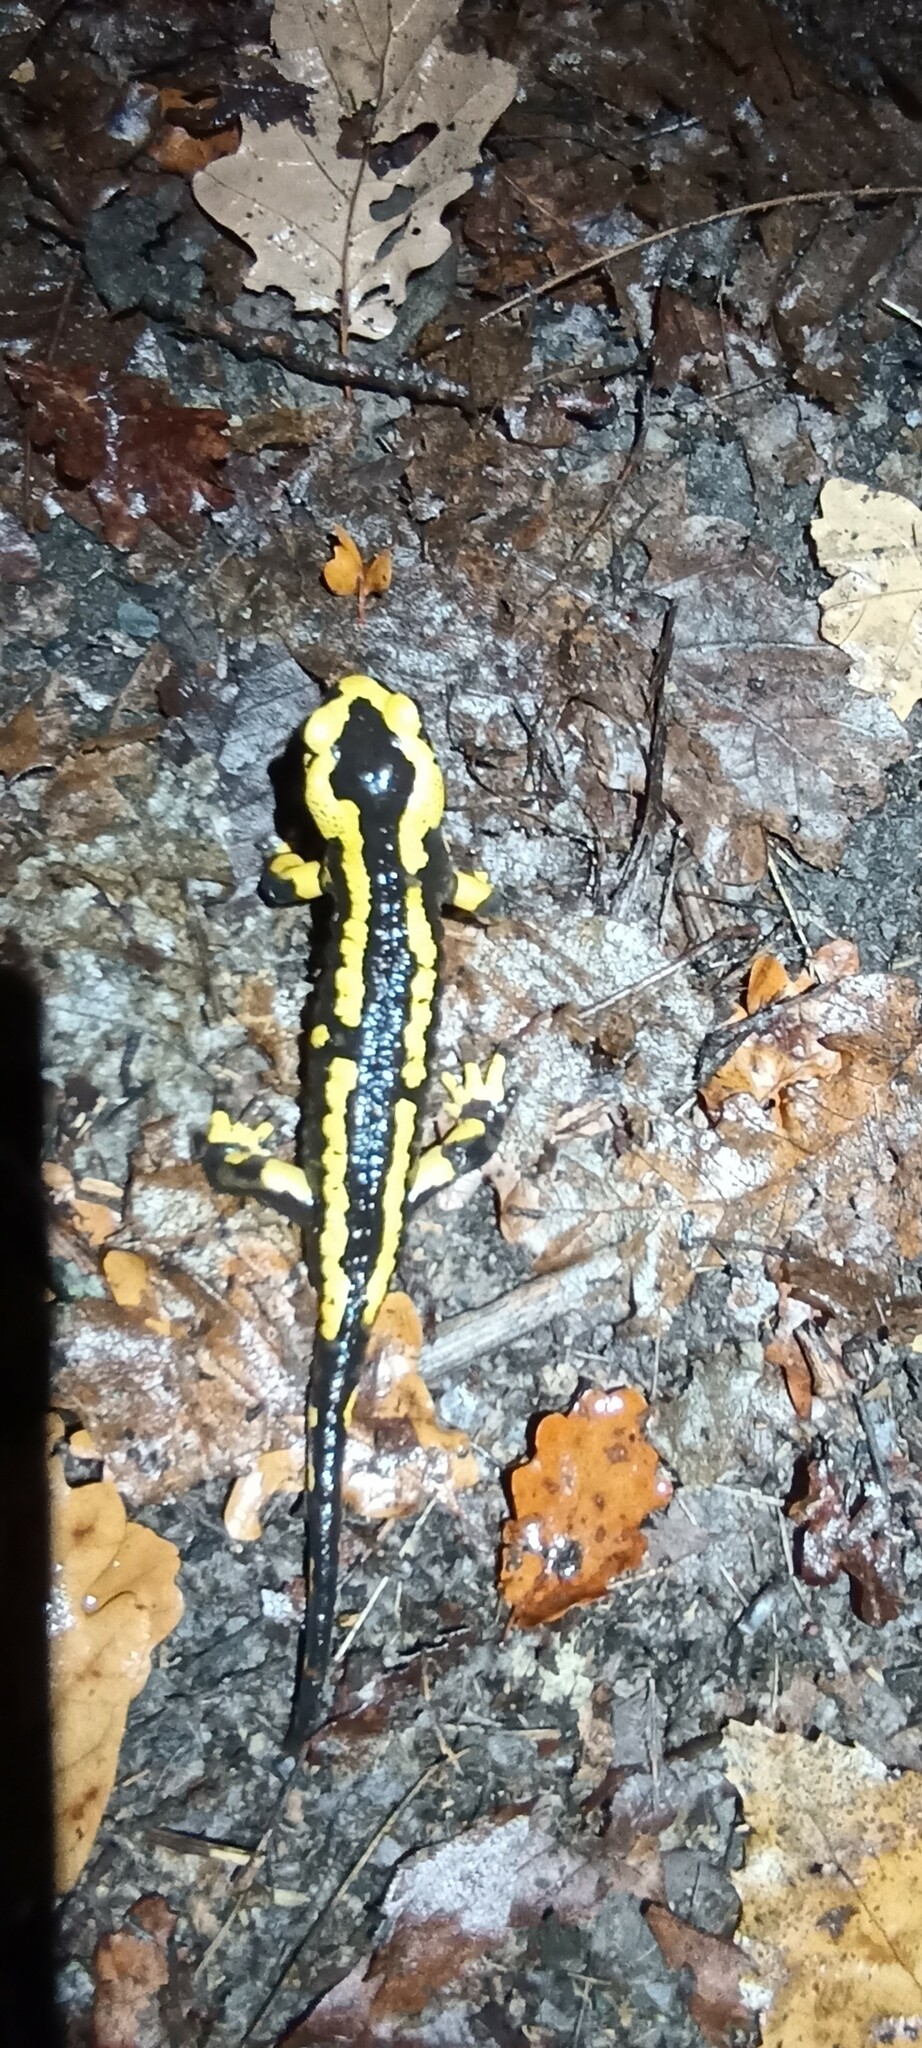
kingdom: Animalia
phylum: Chordata
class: Amphibia
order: Caudata
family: Salamandridae
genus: Salamandra
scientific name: Salamandra salamandra
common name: Fire salamander
